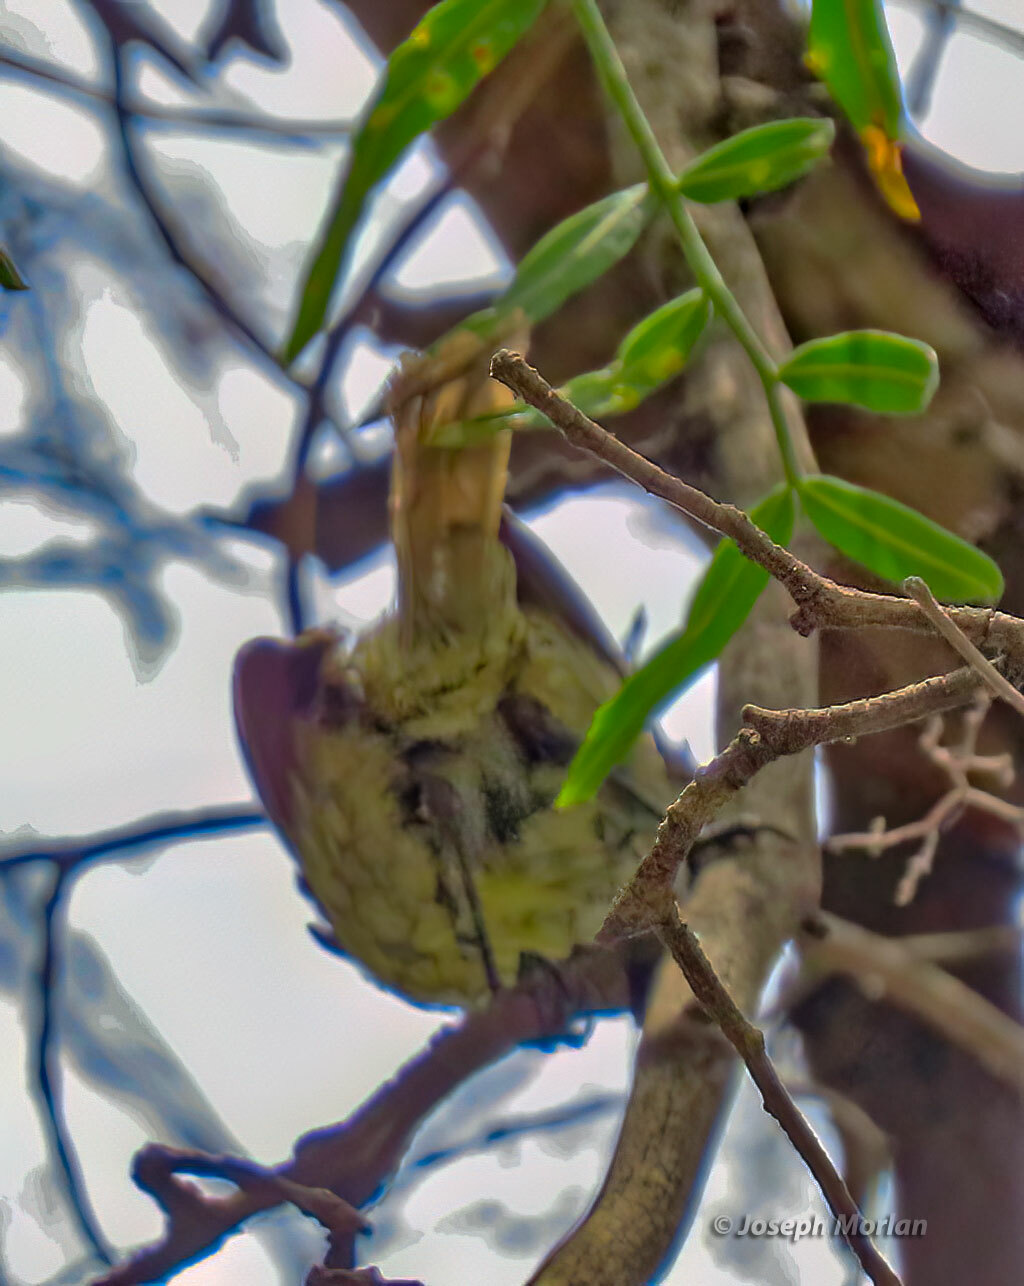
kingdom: Animalia
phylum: Chordata
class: Aves
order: Passeriformes
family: Tyrannidae
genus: Anairetes
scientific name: Anairetes parulus
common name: Tufted tit-tyrant
